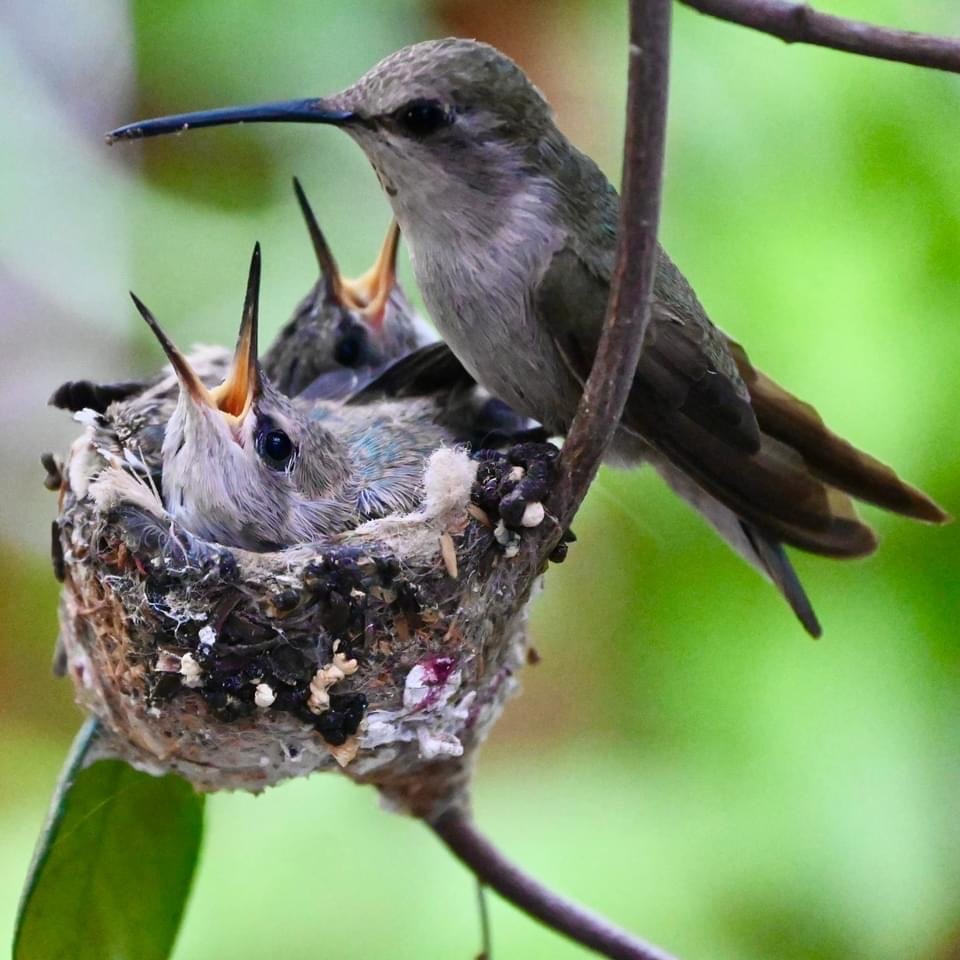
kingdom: Animalia
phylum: Chordata
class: Aves
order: Apodiformes
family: Trochilidae
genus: Calypte
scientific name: Calypte costae
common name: Costa's hummingbird
